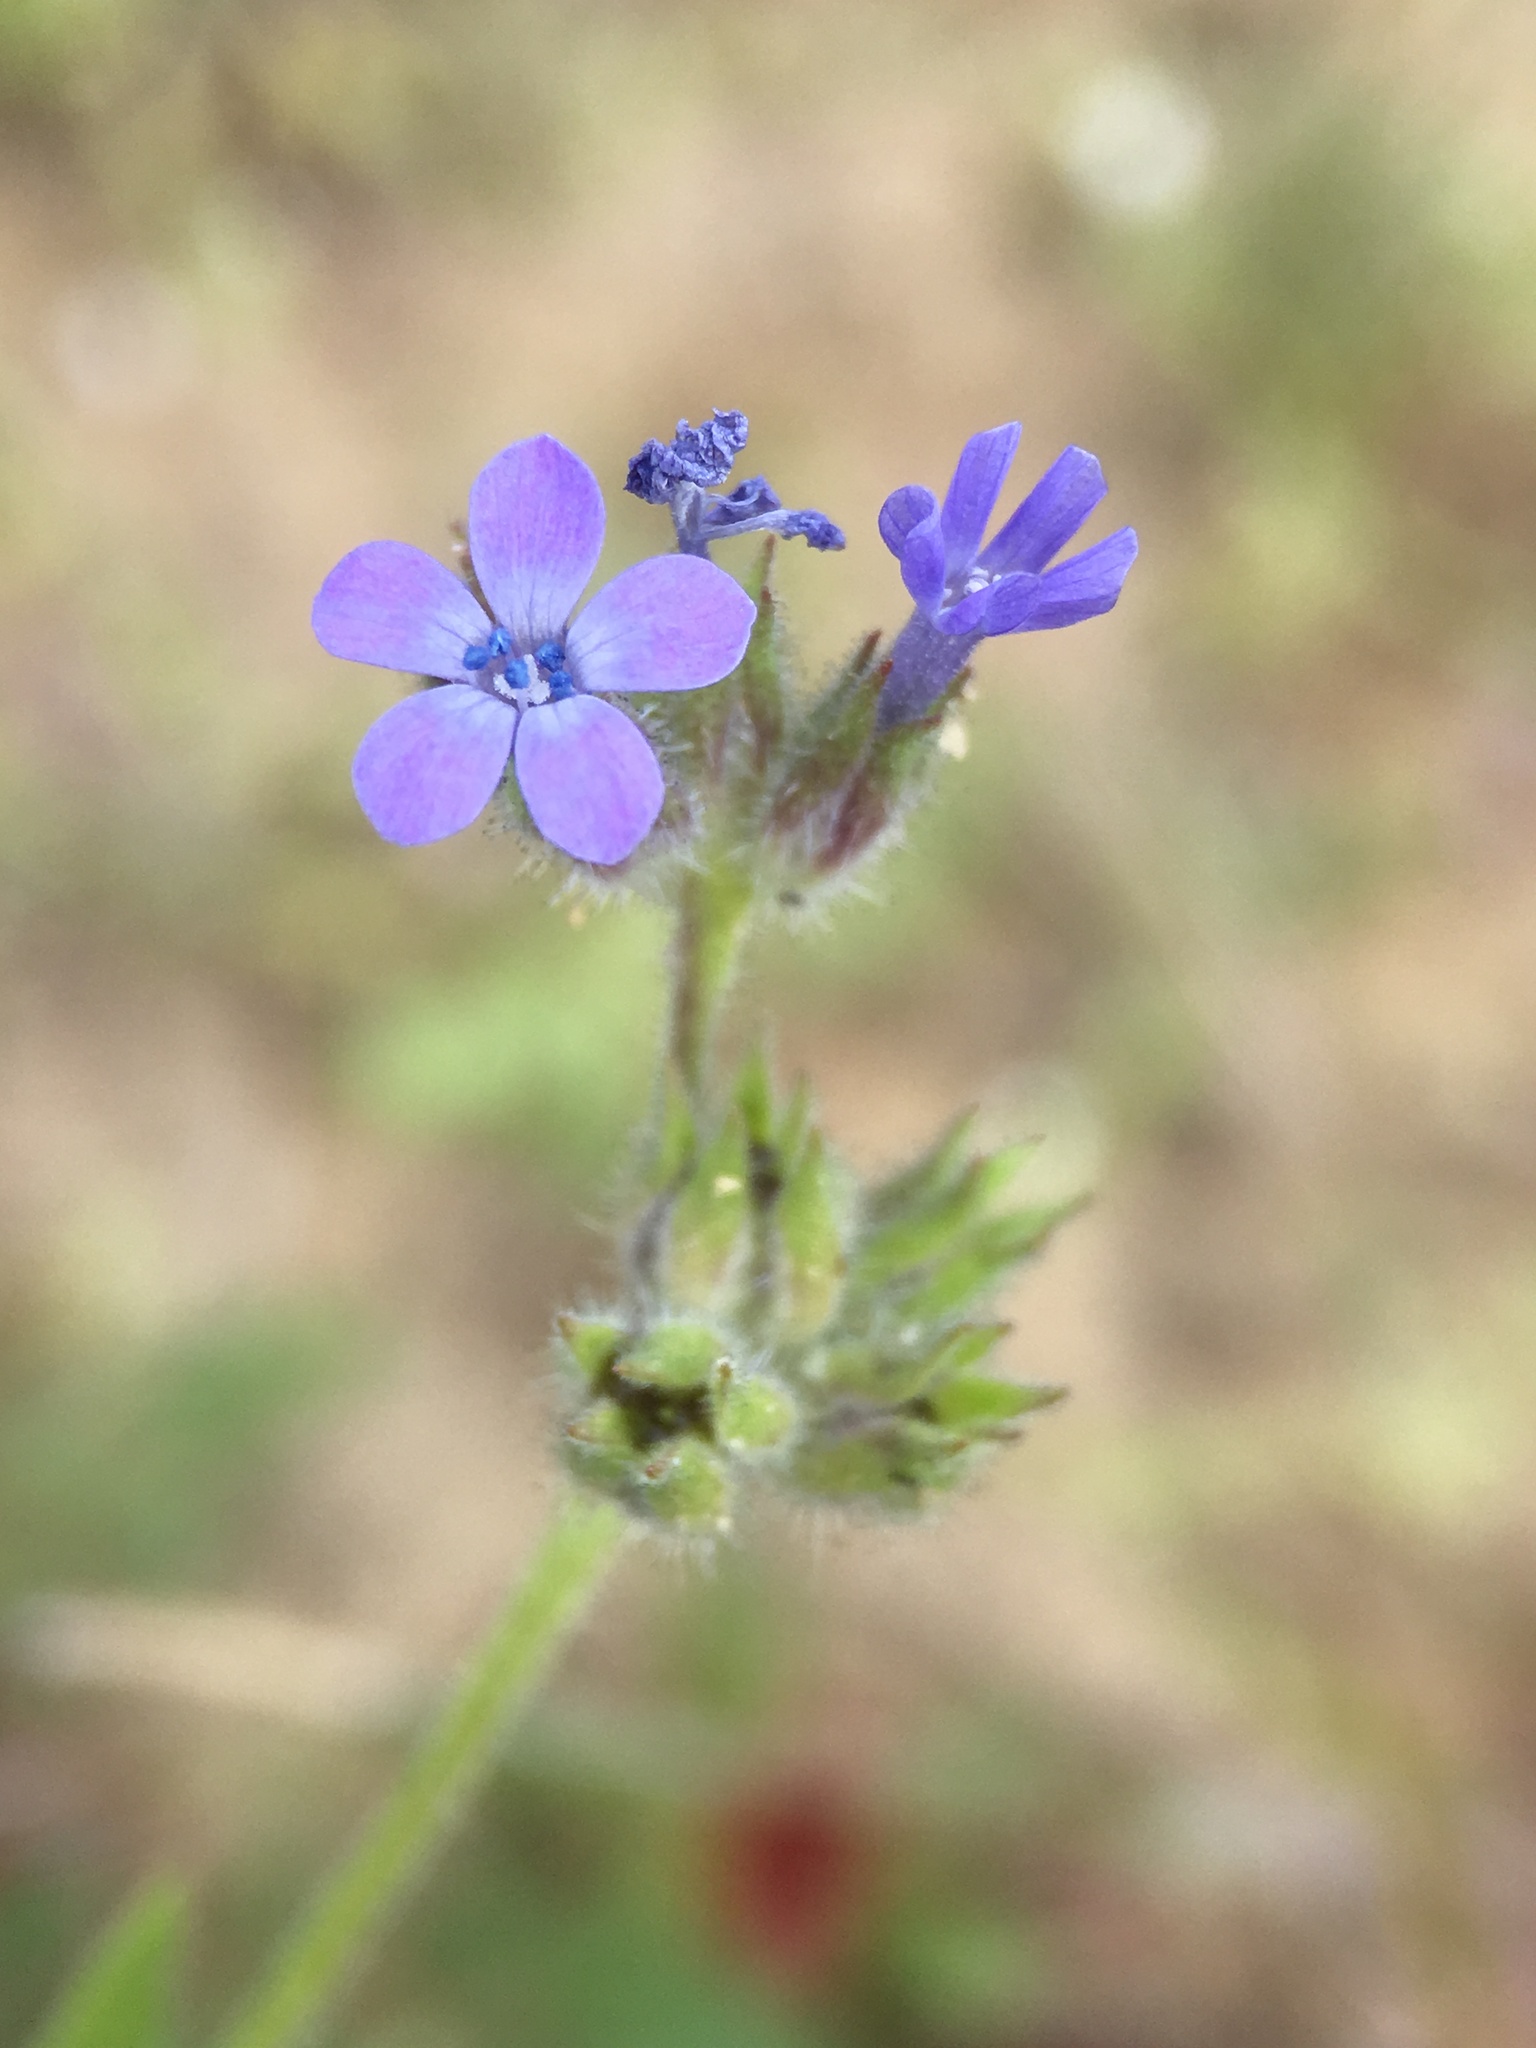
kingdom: Plantae
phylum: Tracheophyta
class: Magnoliopsida
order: Ericales
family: Polemoniaceae
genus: Allophyllum
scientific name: Allophyllum gilioides
